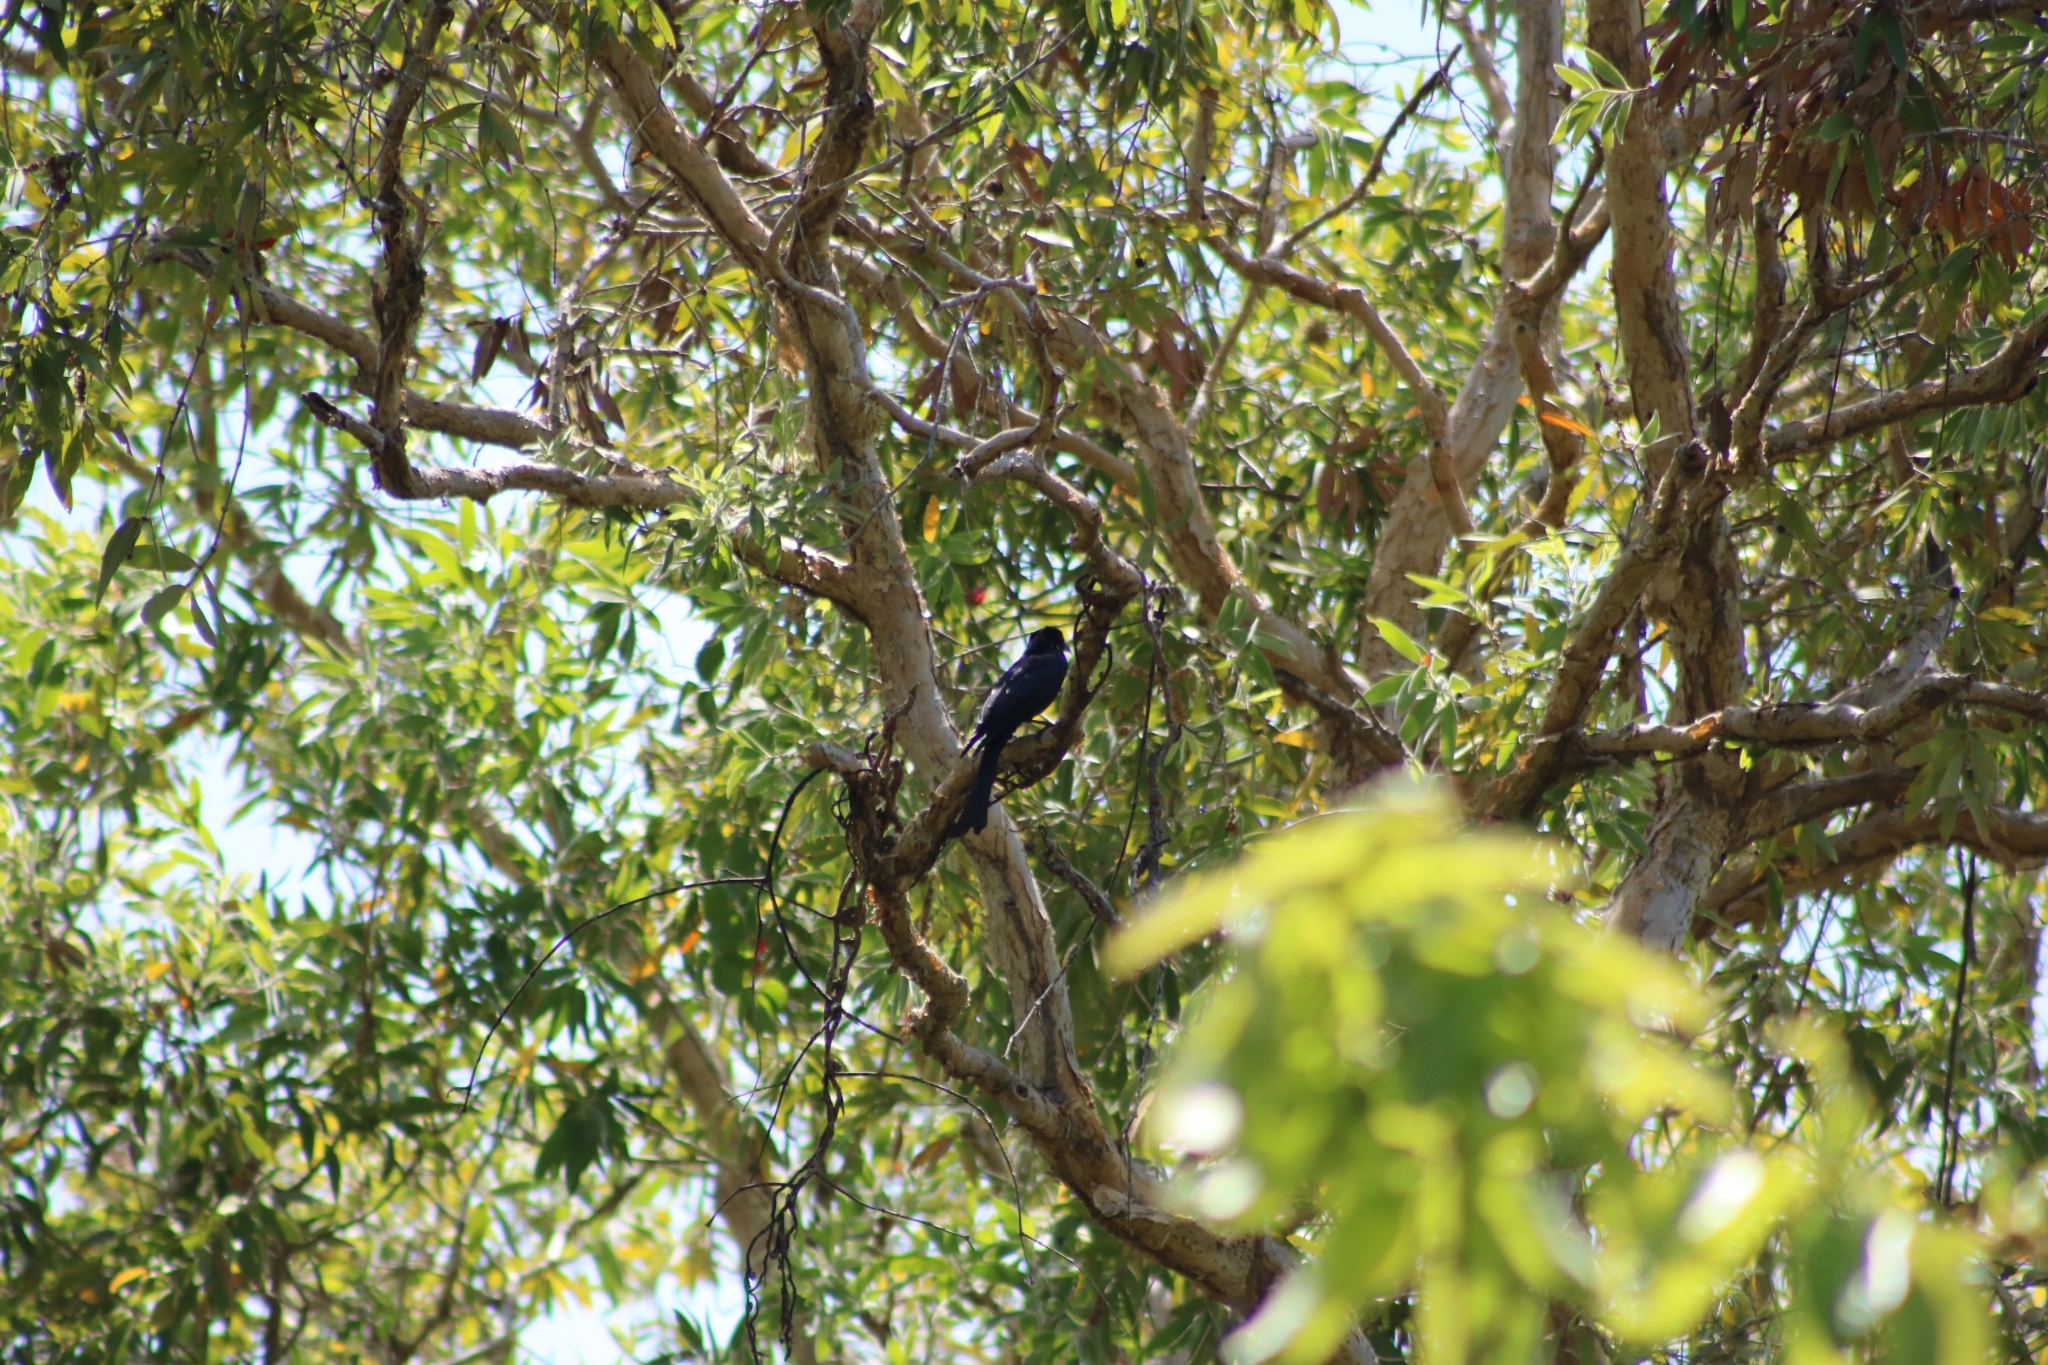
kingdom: Animalia
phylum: Chordata
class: Aves
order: Passeriformes
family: Dicruridae
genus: Dicrurus
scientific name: Dicrurus bracteatus
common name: Spangled drongo
